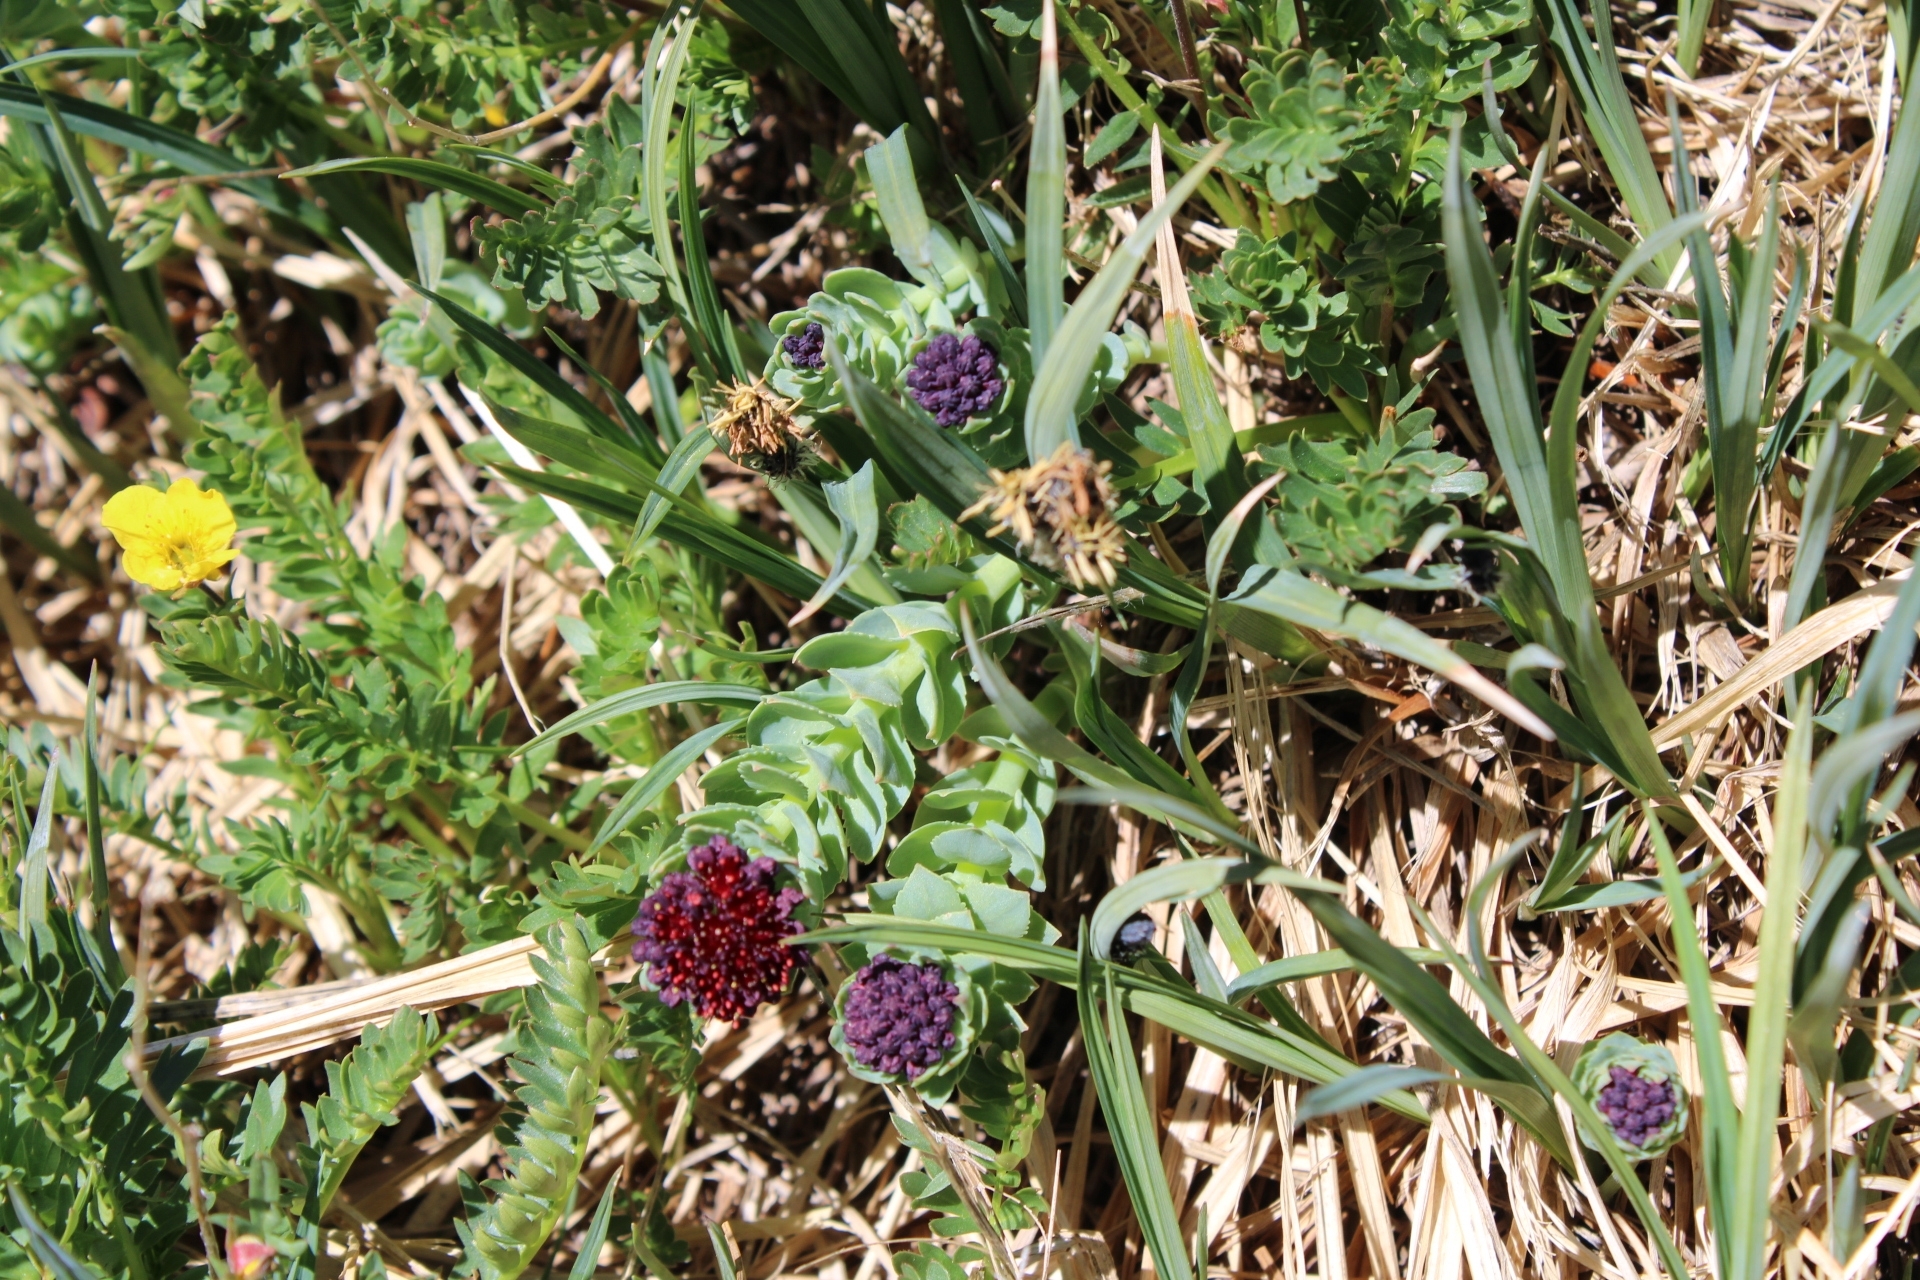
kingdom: Plantae
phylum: Tracheophyta
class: Magnoliopsida
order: Saxifragales
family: Crassulaceae
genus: Rhodiola
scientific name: Rhodiola integrifolia
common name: Western roseroot
